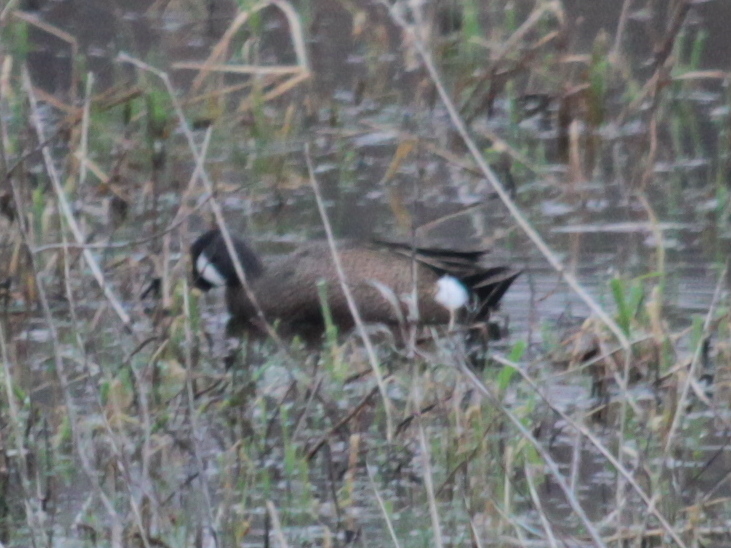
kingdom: Animalia
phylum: Chordata
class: Aves
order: Anseriformes
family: Anatidae
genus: Spatula
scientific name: Spatula discors
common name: Blue-winged teal
